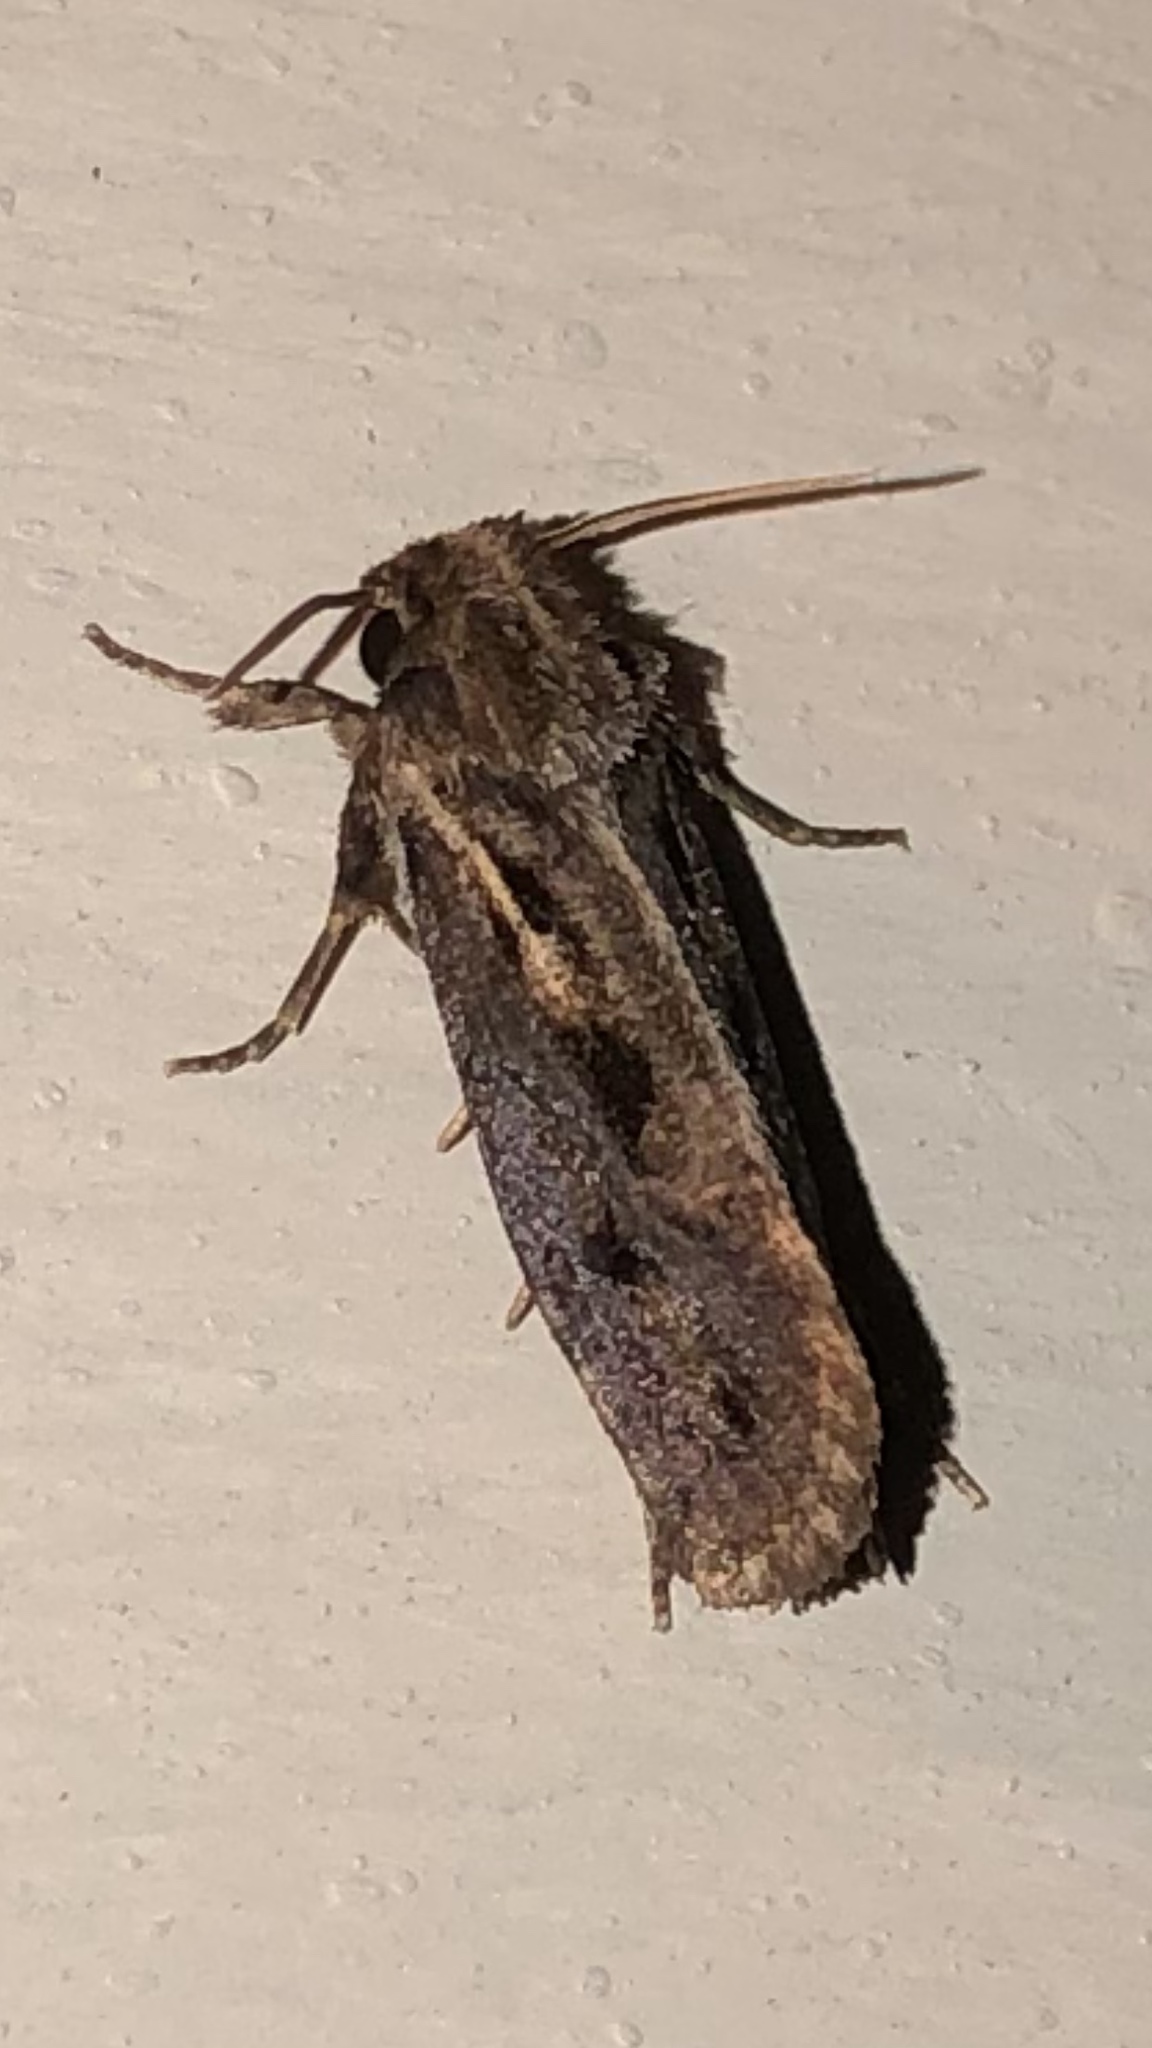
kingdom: Animalia
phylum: Arthropoda
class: Insecta
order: Lepidoptera
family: Tineidae
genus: Acrolophus
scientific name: Acrolophus popeanella
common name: Clemens' grass tubeworm moth
